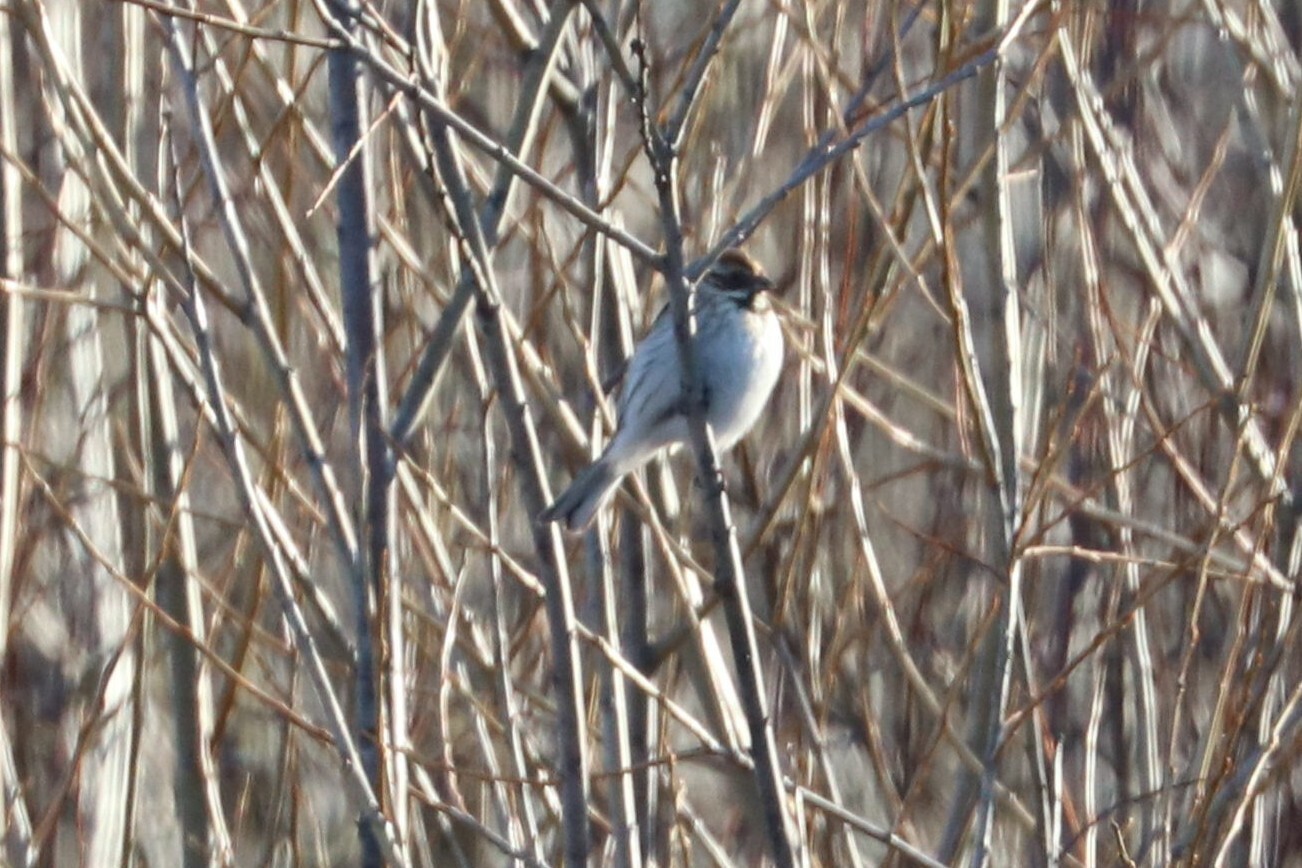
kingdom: Animalia
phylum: Chordata
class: Aves
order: Passeriformes
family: Emberizidae
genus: Emberiza
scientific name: Emberiza schoeniclus
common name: Reed bunting
